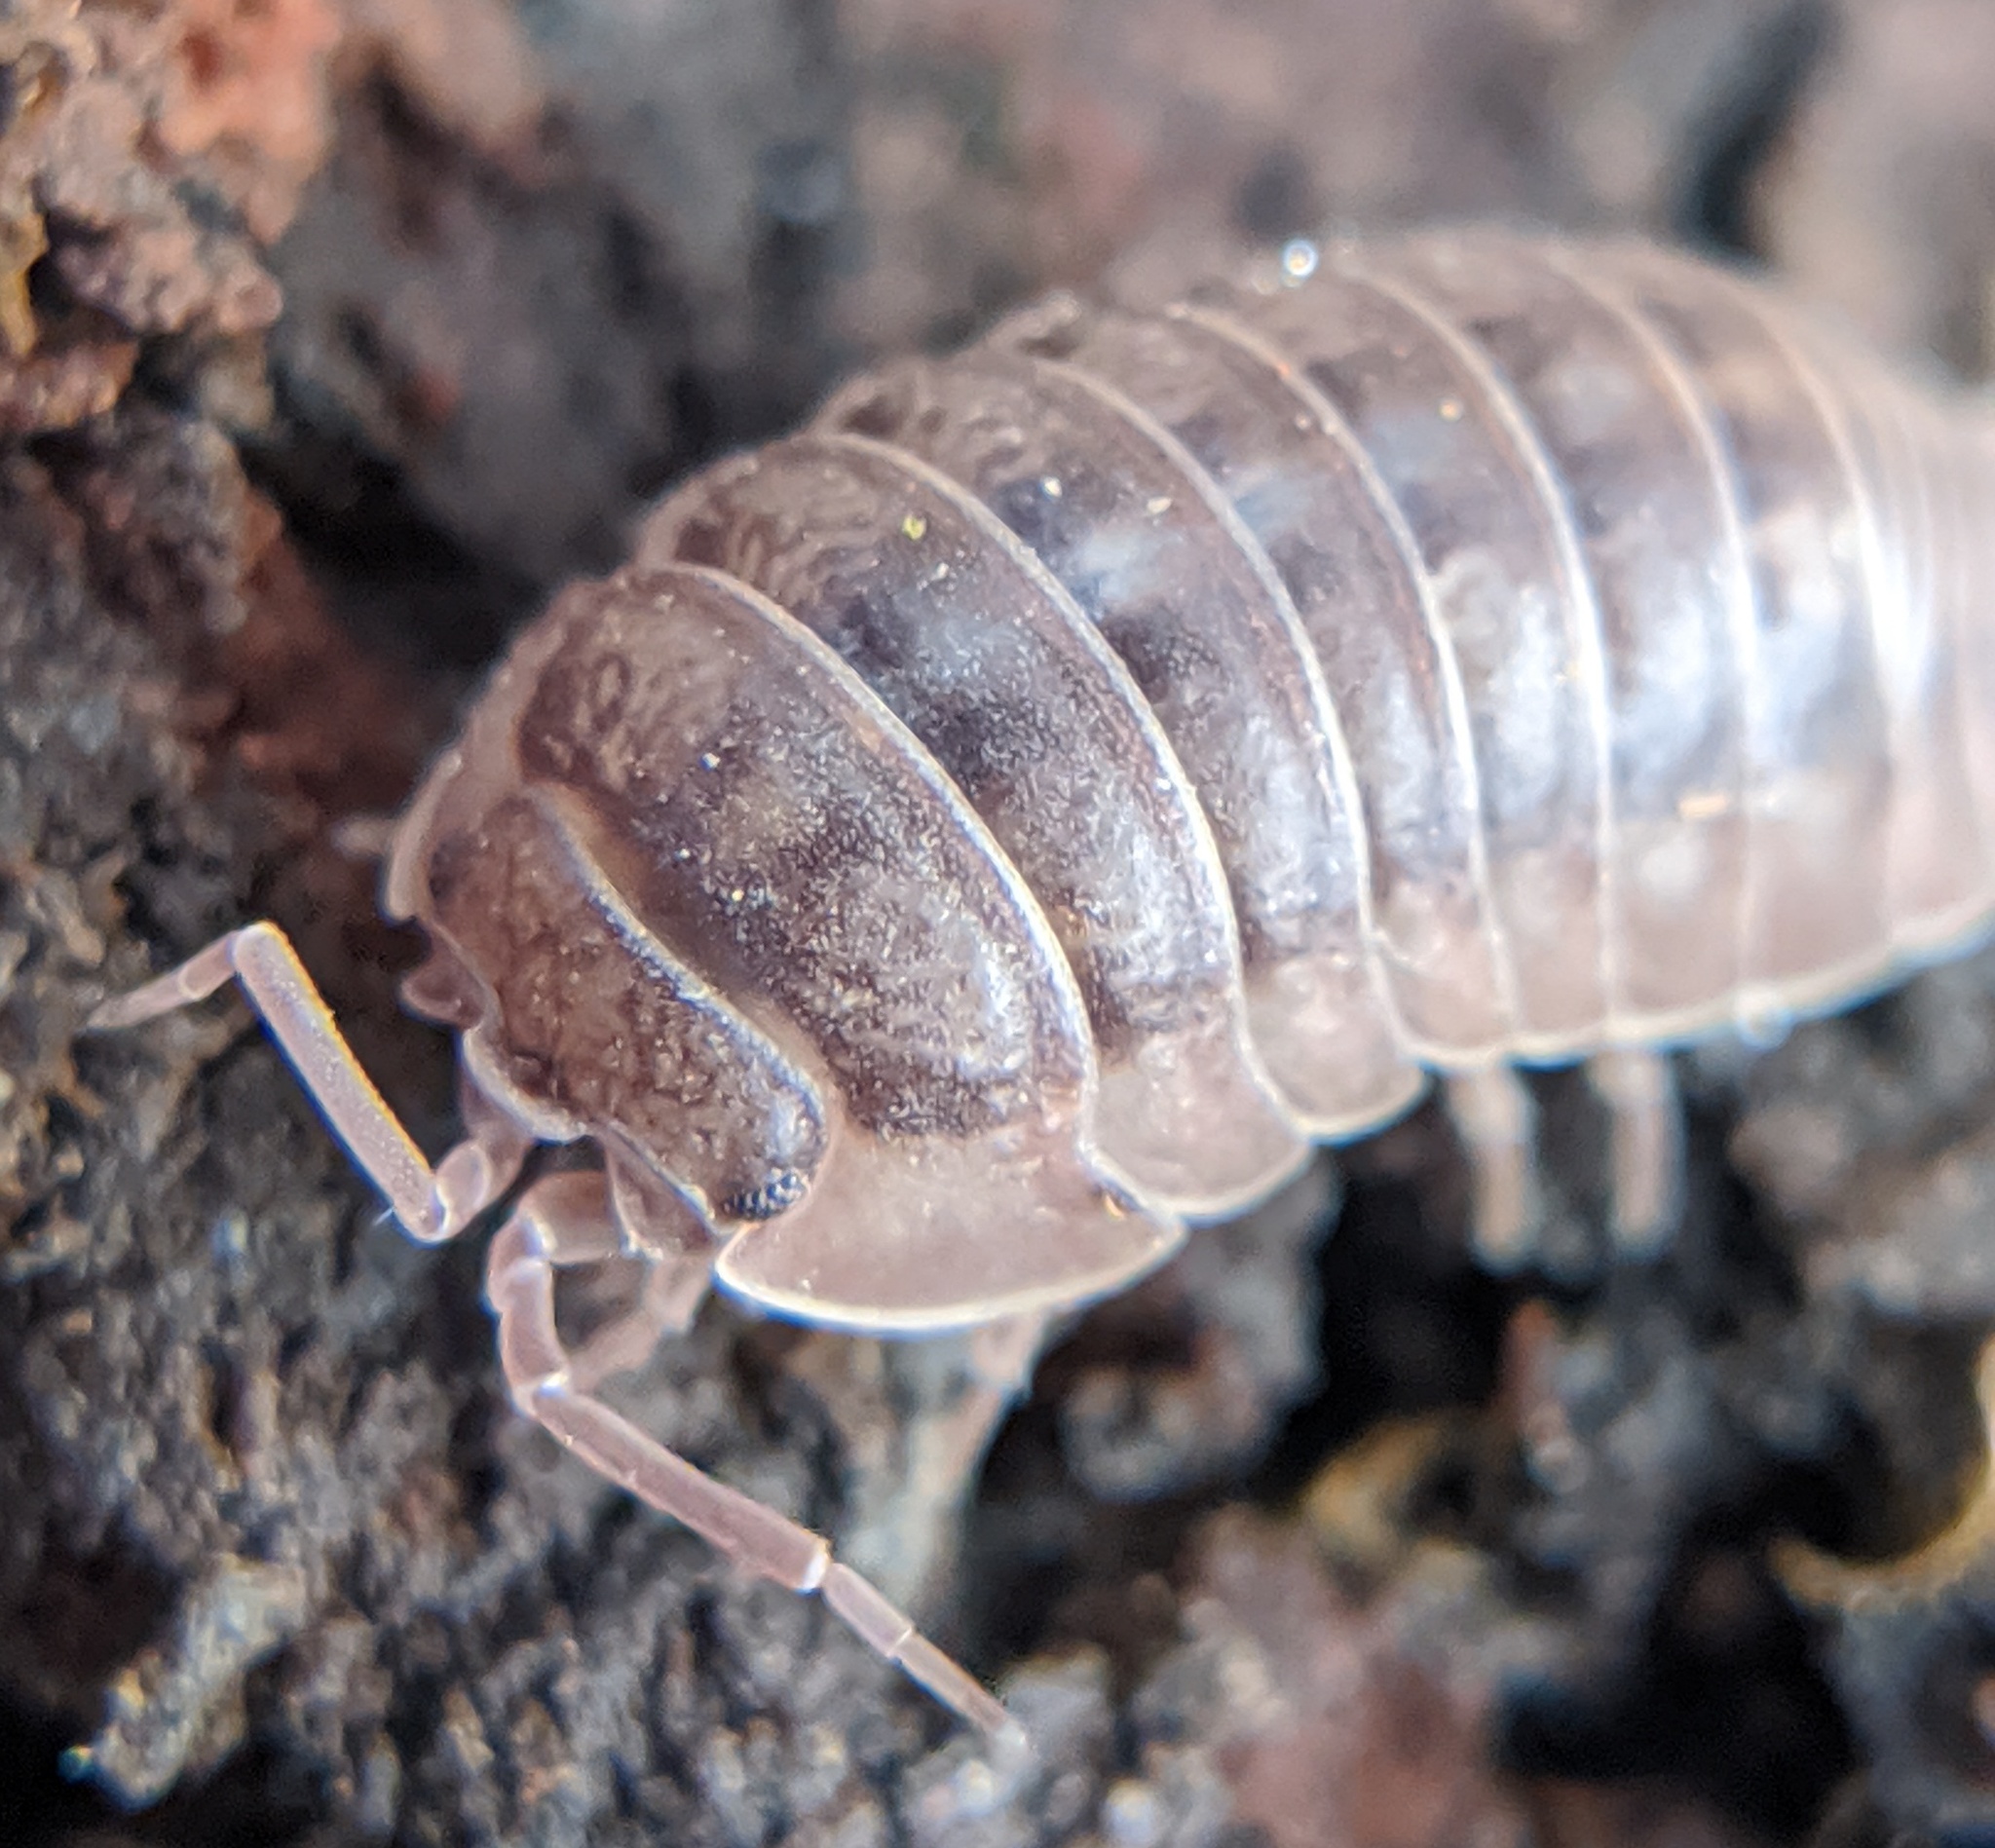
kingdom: Animalia
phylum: Arthropoda
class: Malacostraca
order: Isopoda
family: Armadillidiidae
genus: Armadillidium
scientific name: Armadillidium nasatum
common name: Isopod
